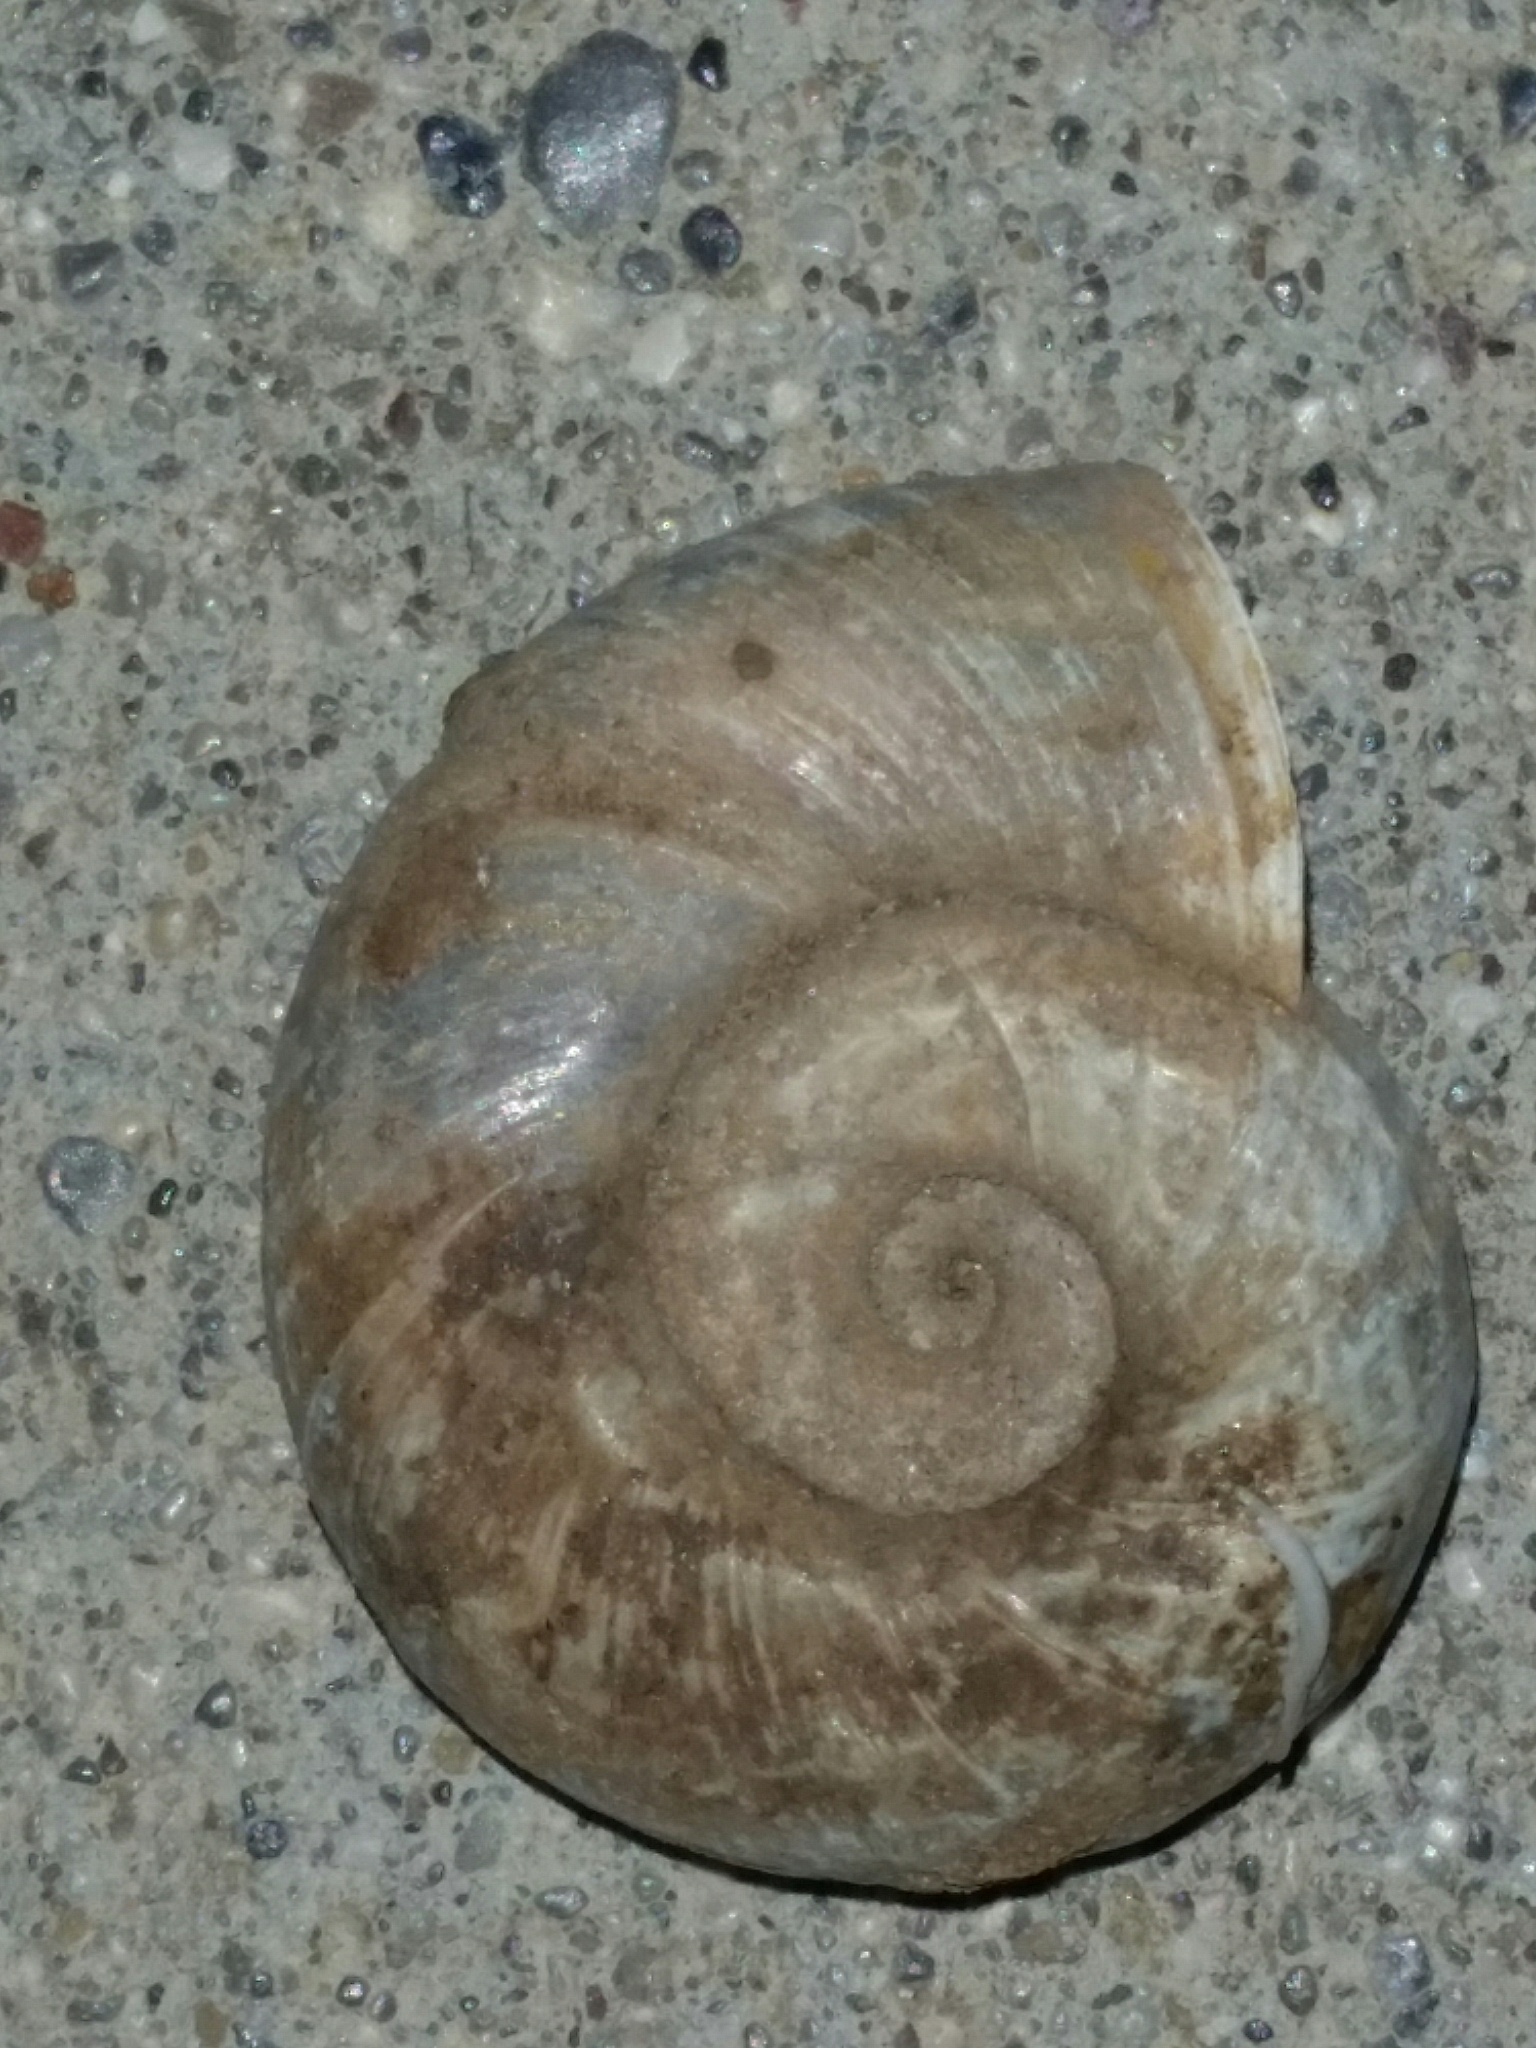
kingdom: Animalia
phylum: Mollusca
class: Gastropoda
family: Planorbidae
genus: Planorbarius
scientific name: Planorbarius corneus
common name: Great ramshorn
